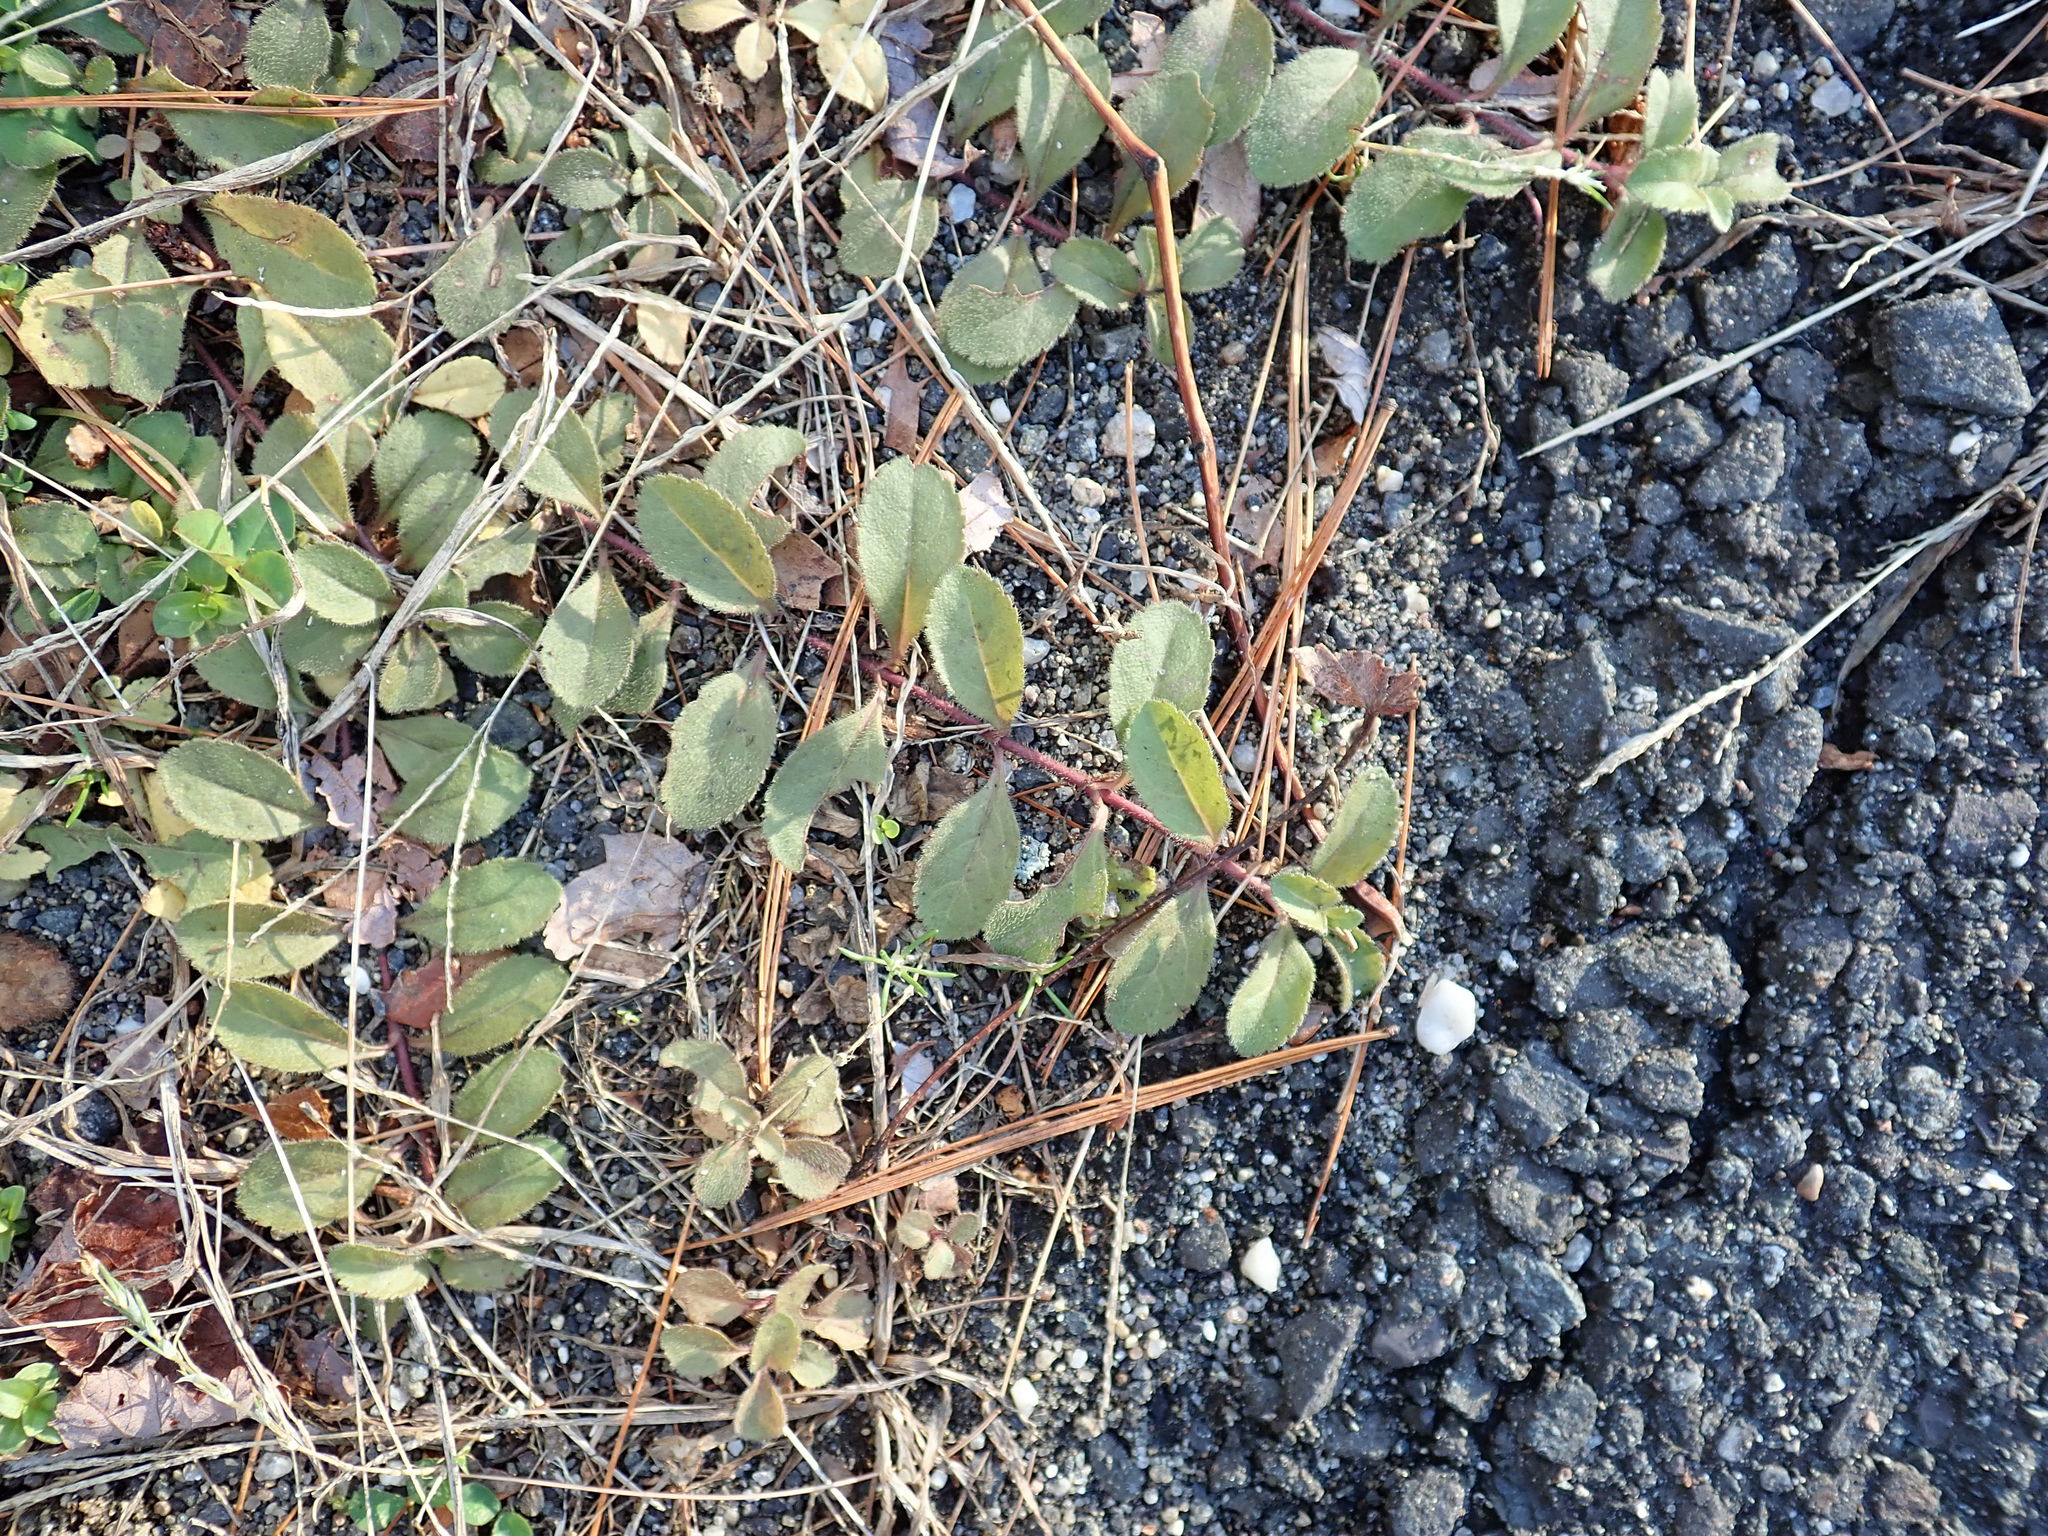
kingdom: Plantae
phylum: Tracheophyta
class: Magnoliopsida
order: Lamiales
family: Plantaginaceae
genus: Veronica
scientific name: Veronica officinalis
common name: Common speedwell
